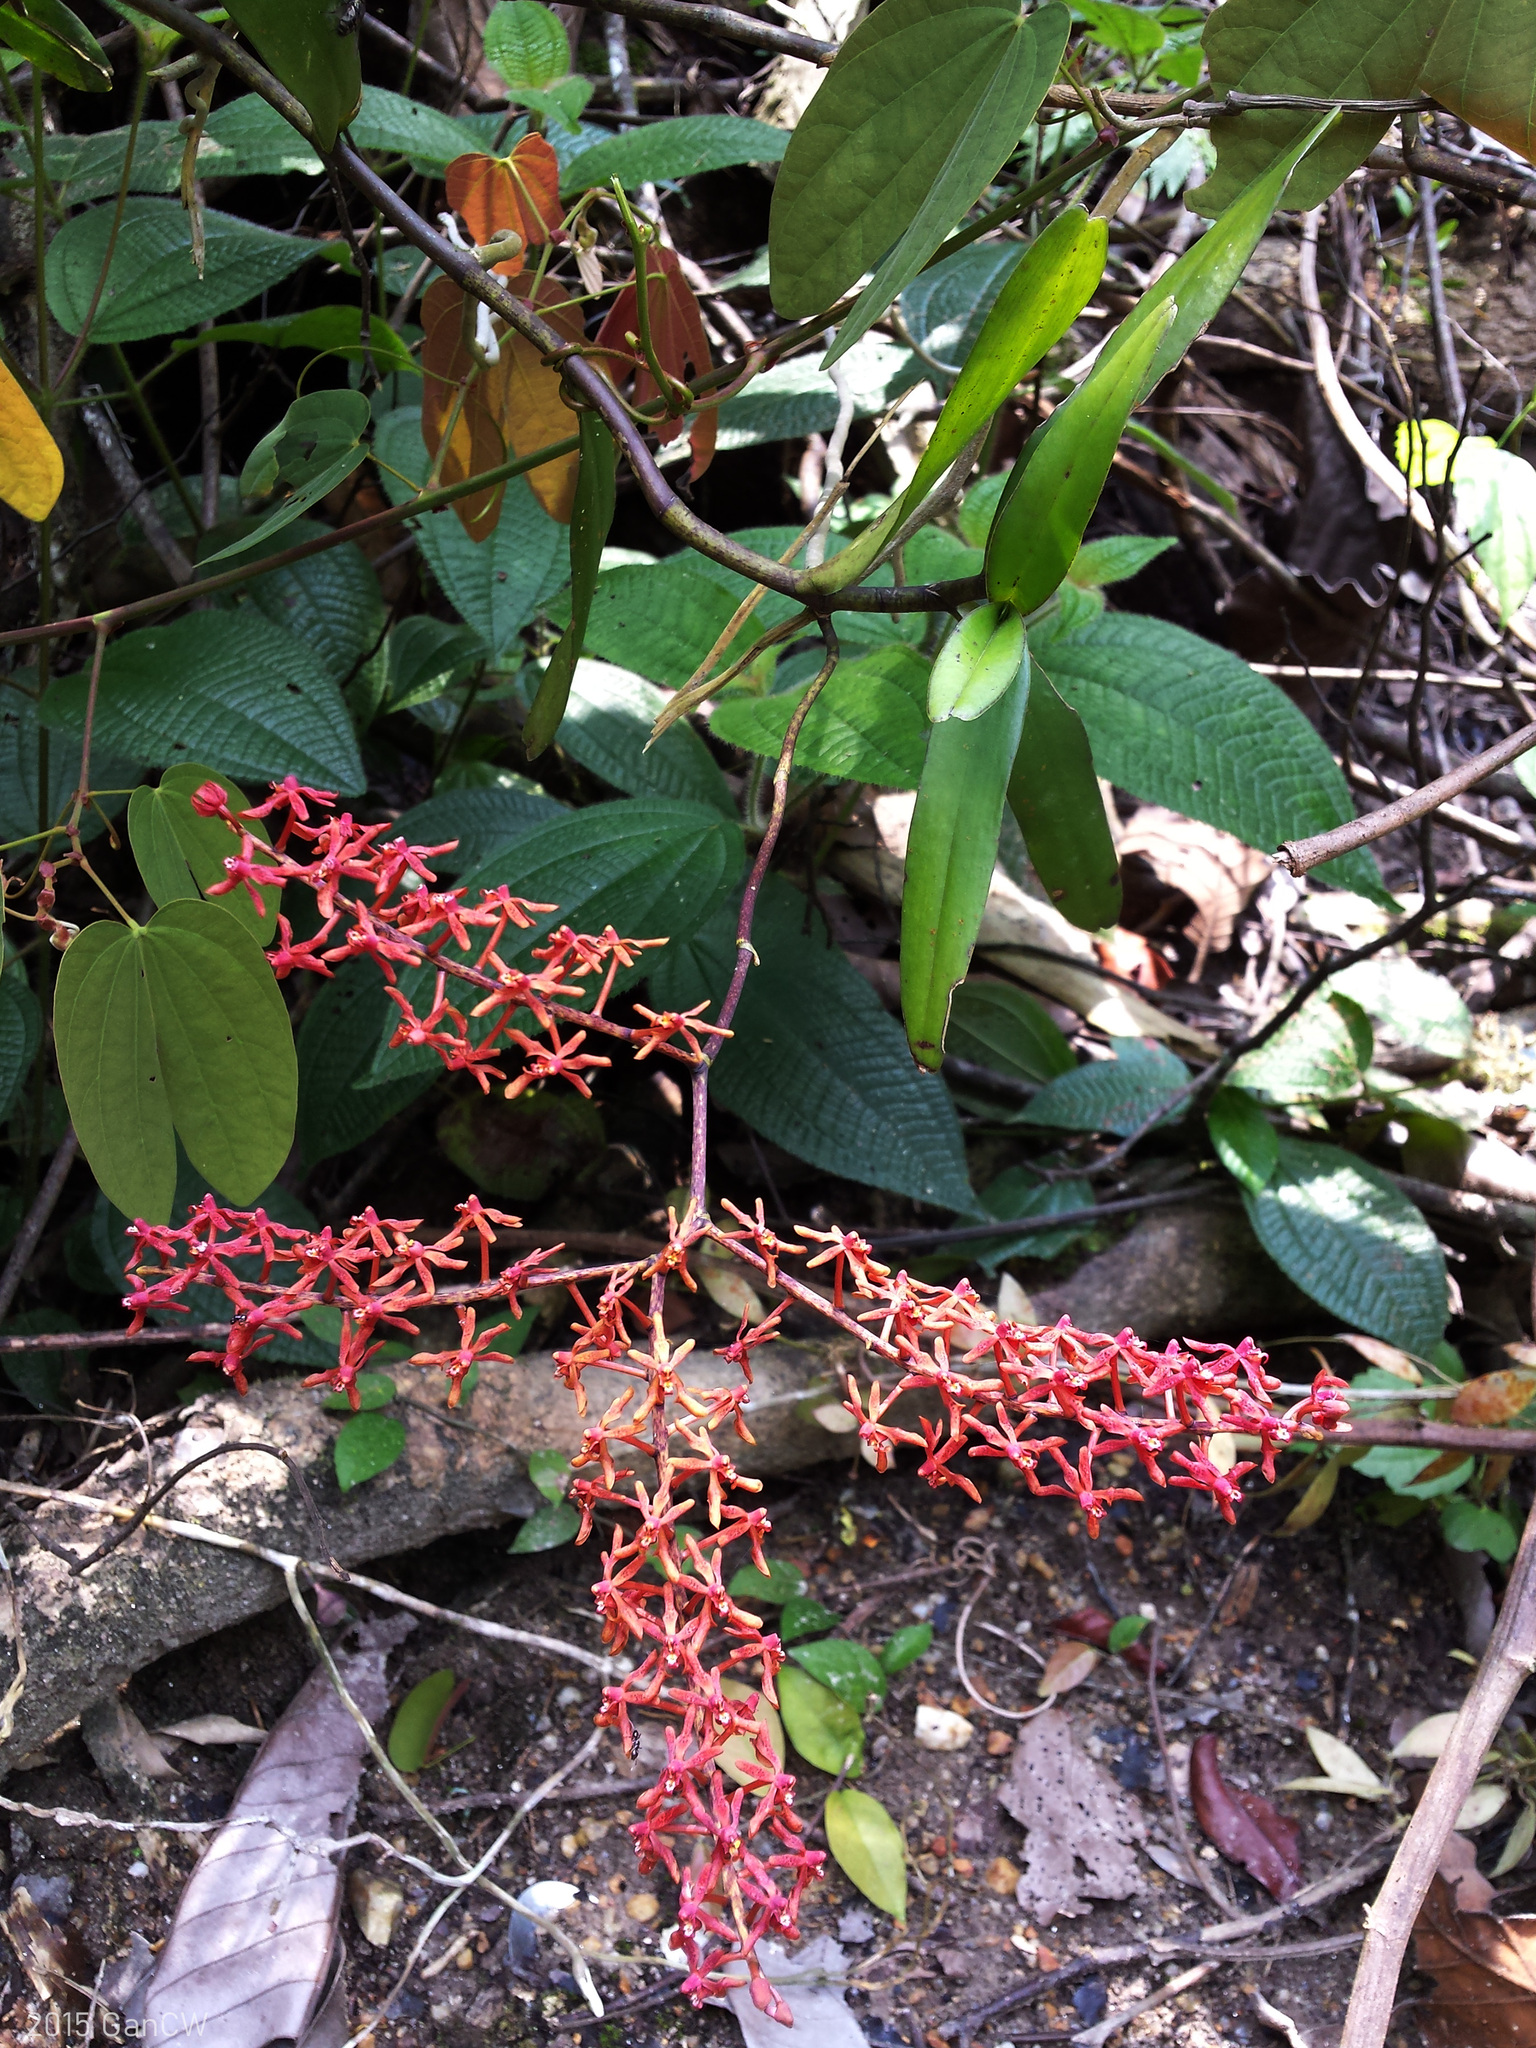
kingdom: Plantae
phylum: Tracheophyta
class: Liliopsida
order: Asparagales
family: Orchidaceae
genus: Renanthera
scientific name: Renanthera elongata
